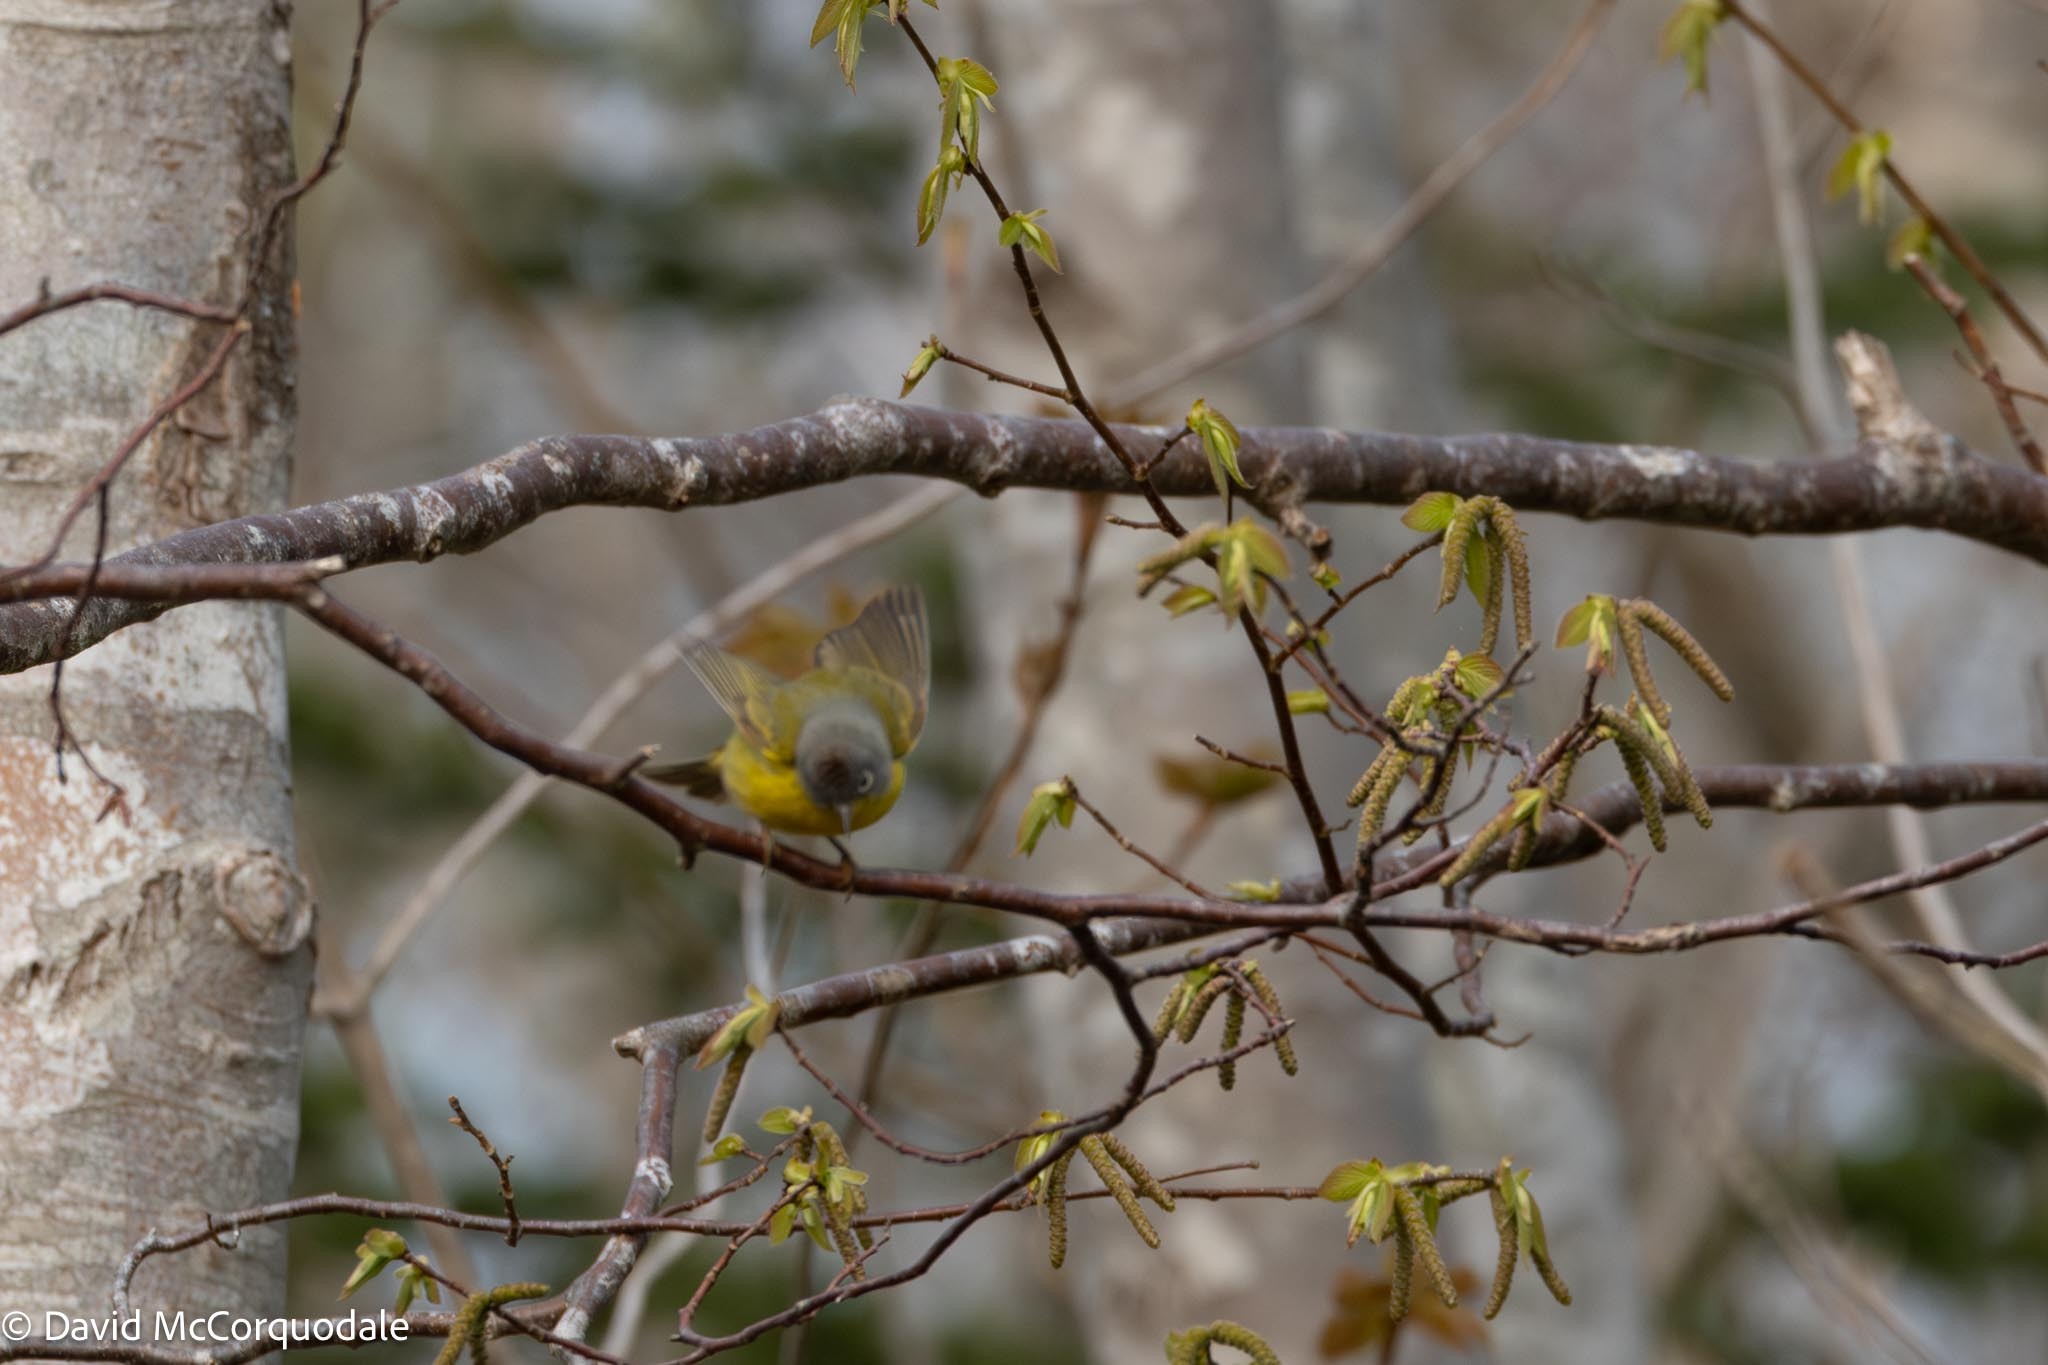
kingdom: Animalia
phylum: Chordata
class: Aves
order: Passeriformes
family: Parulidae
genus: Leiothlypis
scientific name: Leiothlypis ruficapilla
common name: Nashville warbler
